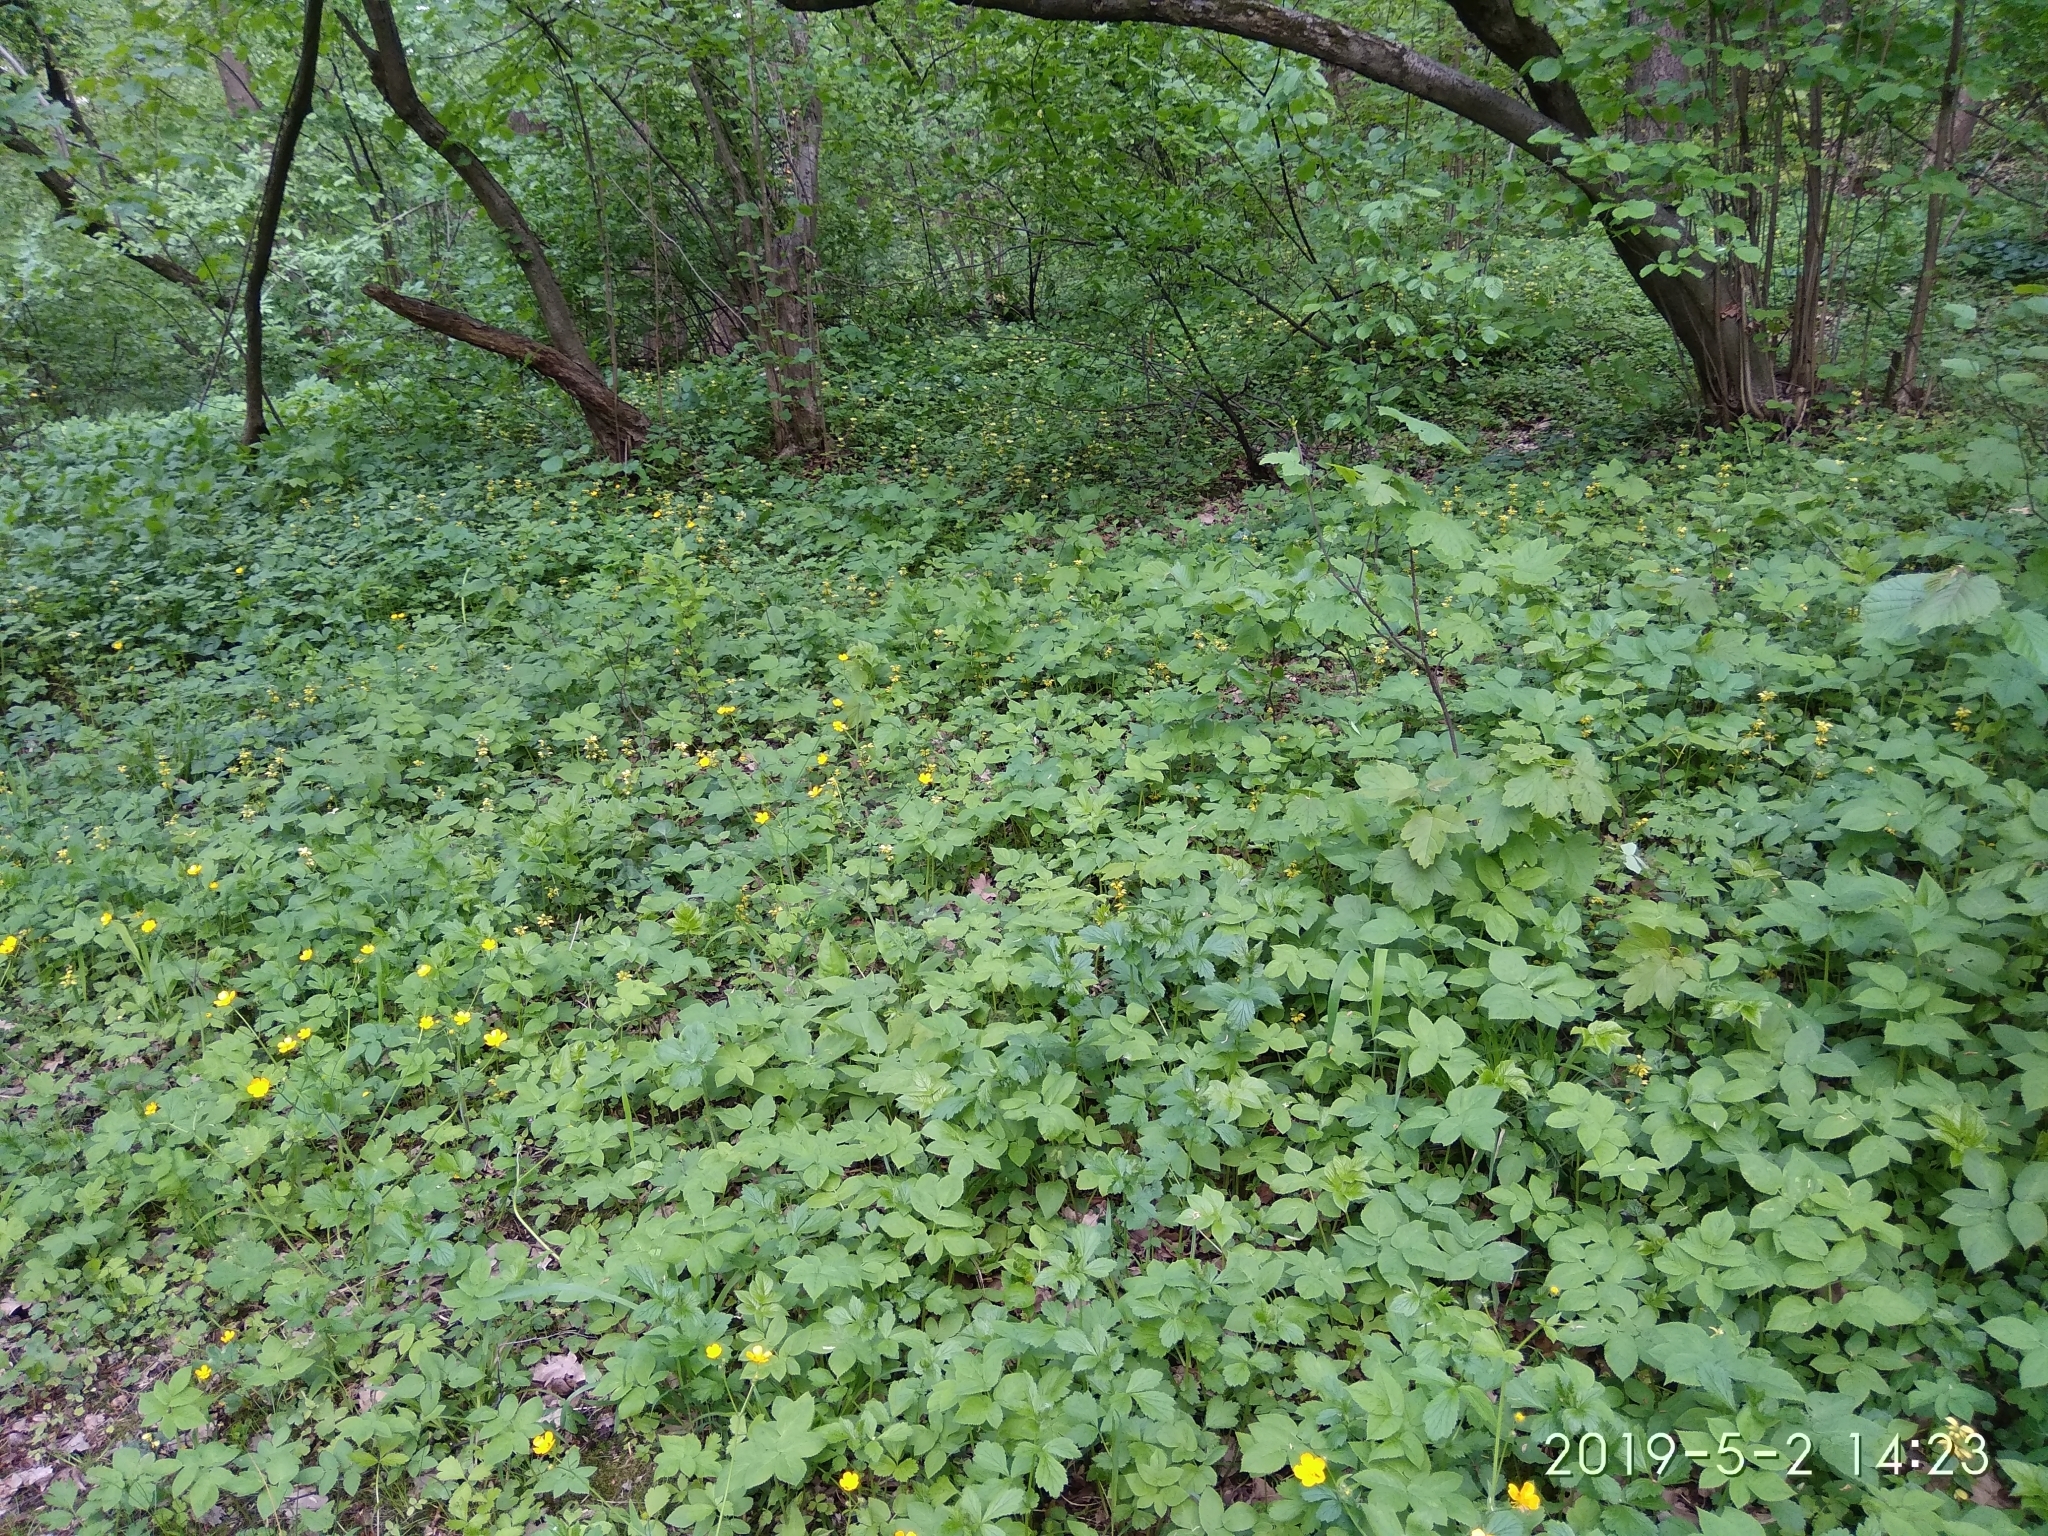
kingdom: Plantae
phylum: Tracheophyta
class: Magnoliopsida
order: Ranunculales
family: Ranunculaceae
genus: Ranunculus
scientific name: Ranunculus lanuginosus
